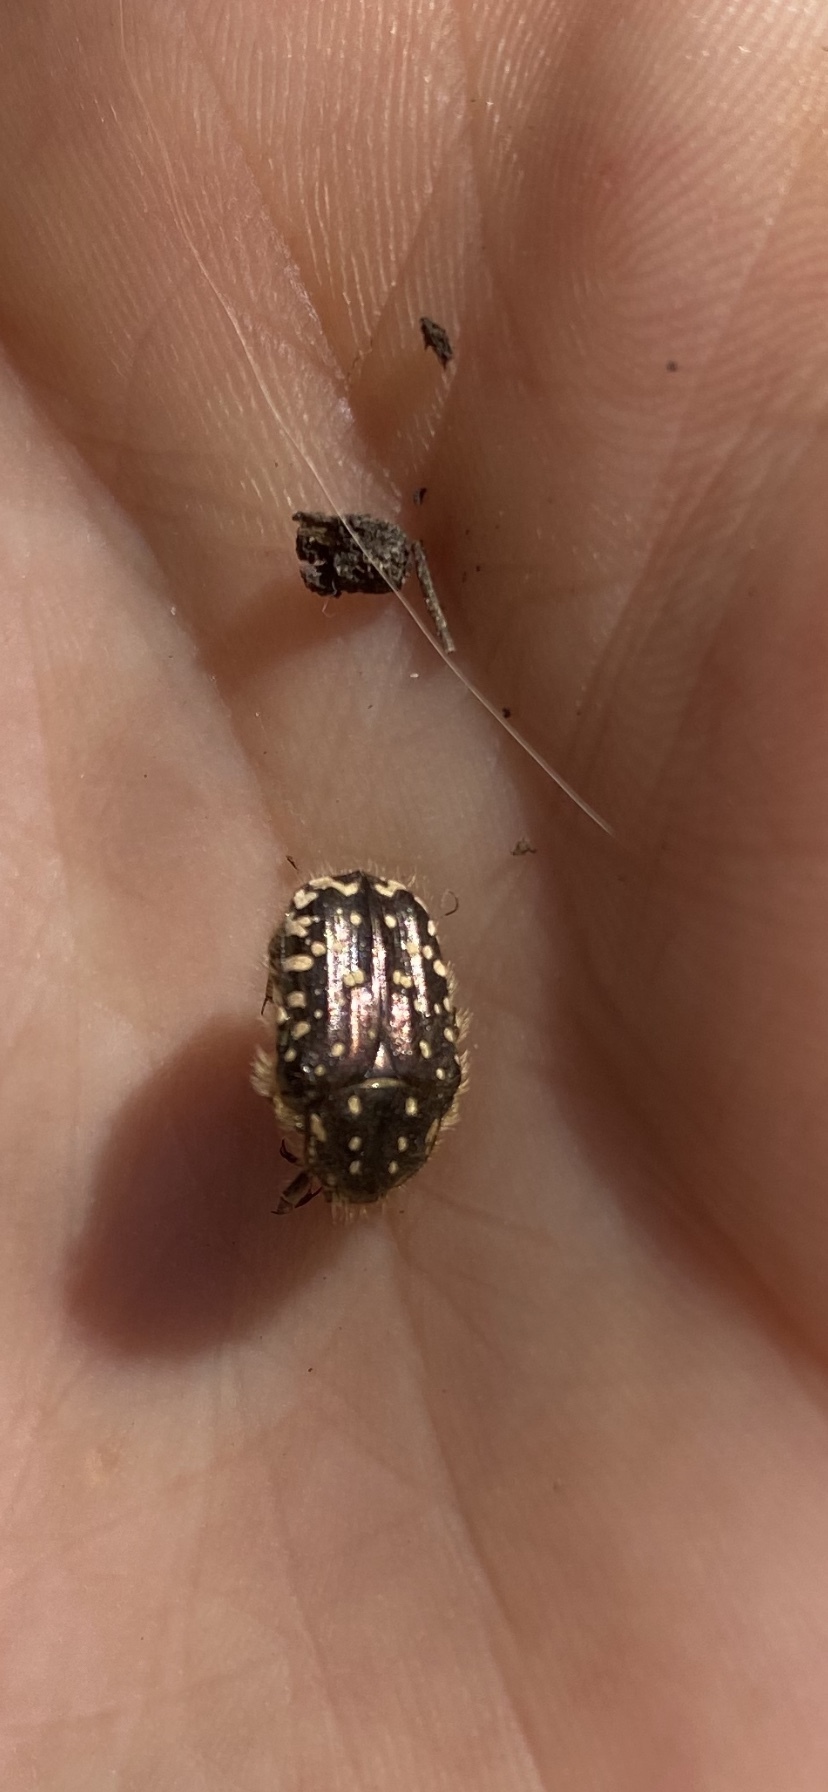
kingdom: Animalia
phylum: Arthropoda
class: Insecta
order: Coleoptera
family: Scarabaeidae
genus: Oxythyrea
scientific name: Oxythyrea funesta
